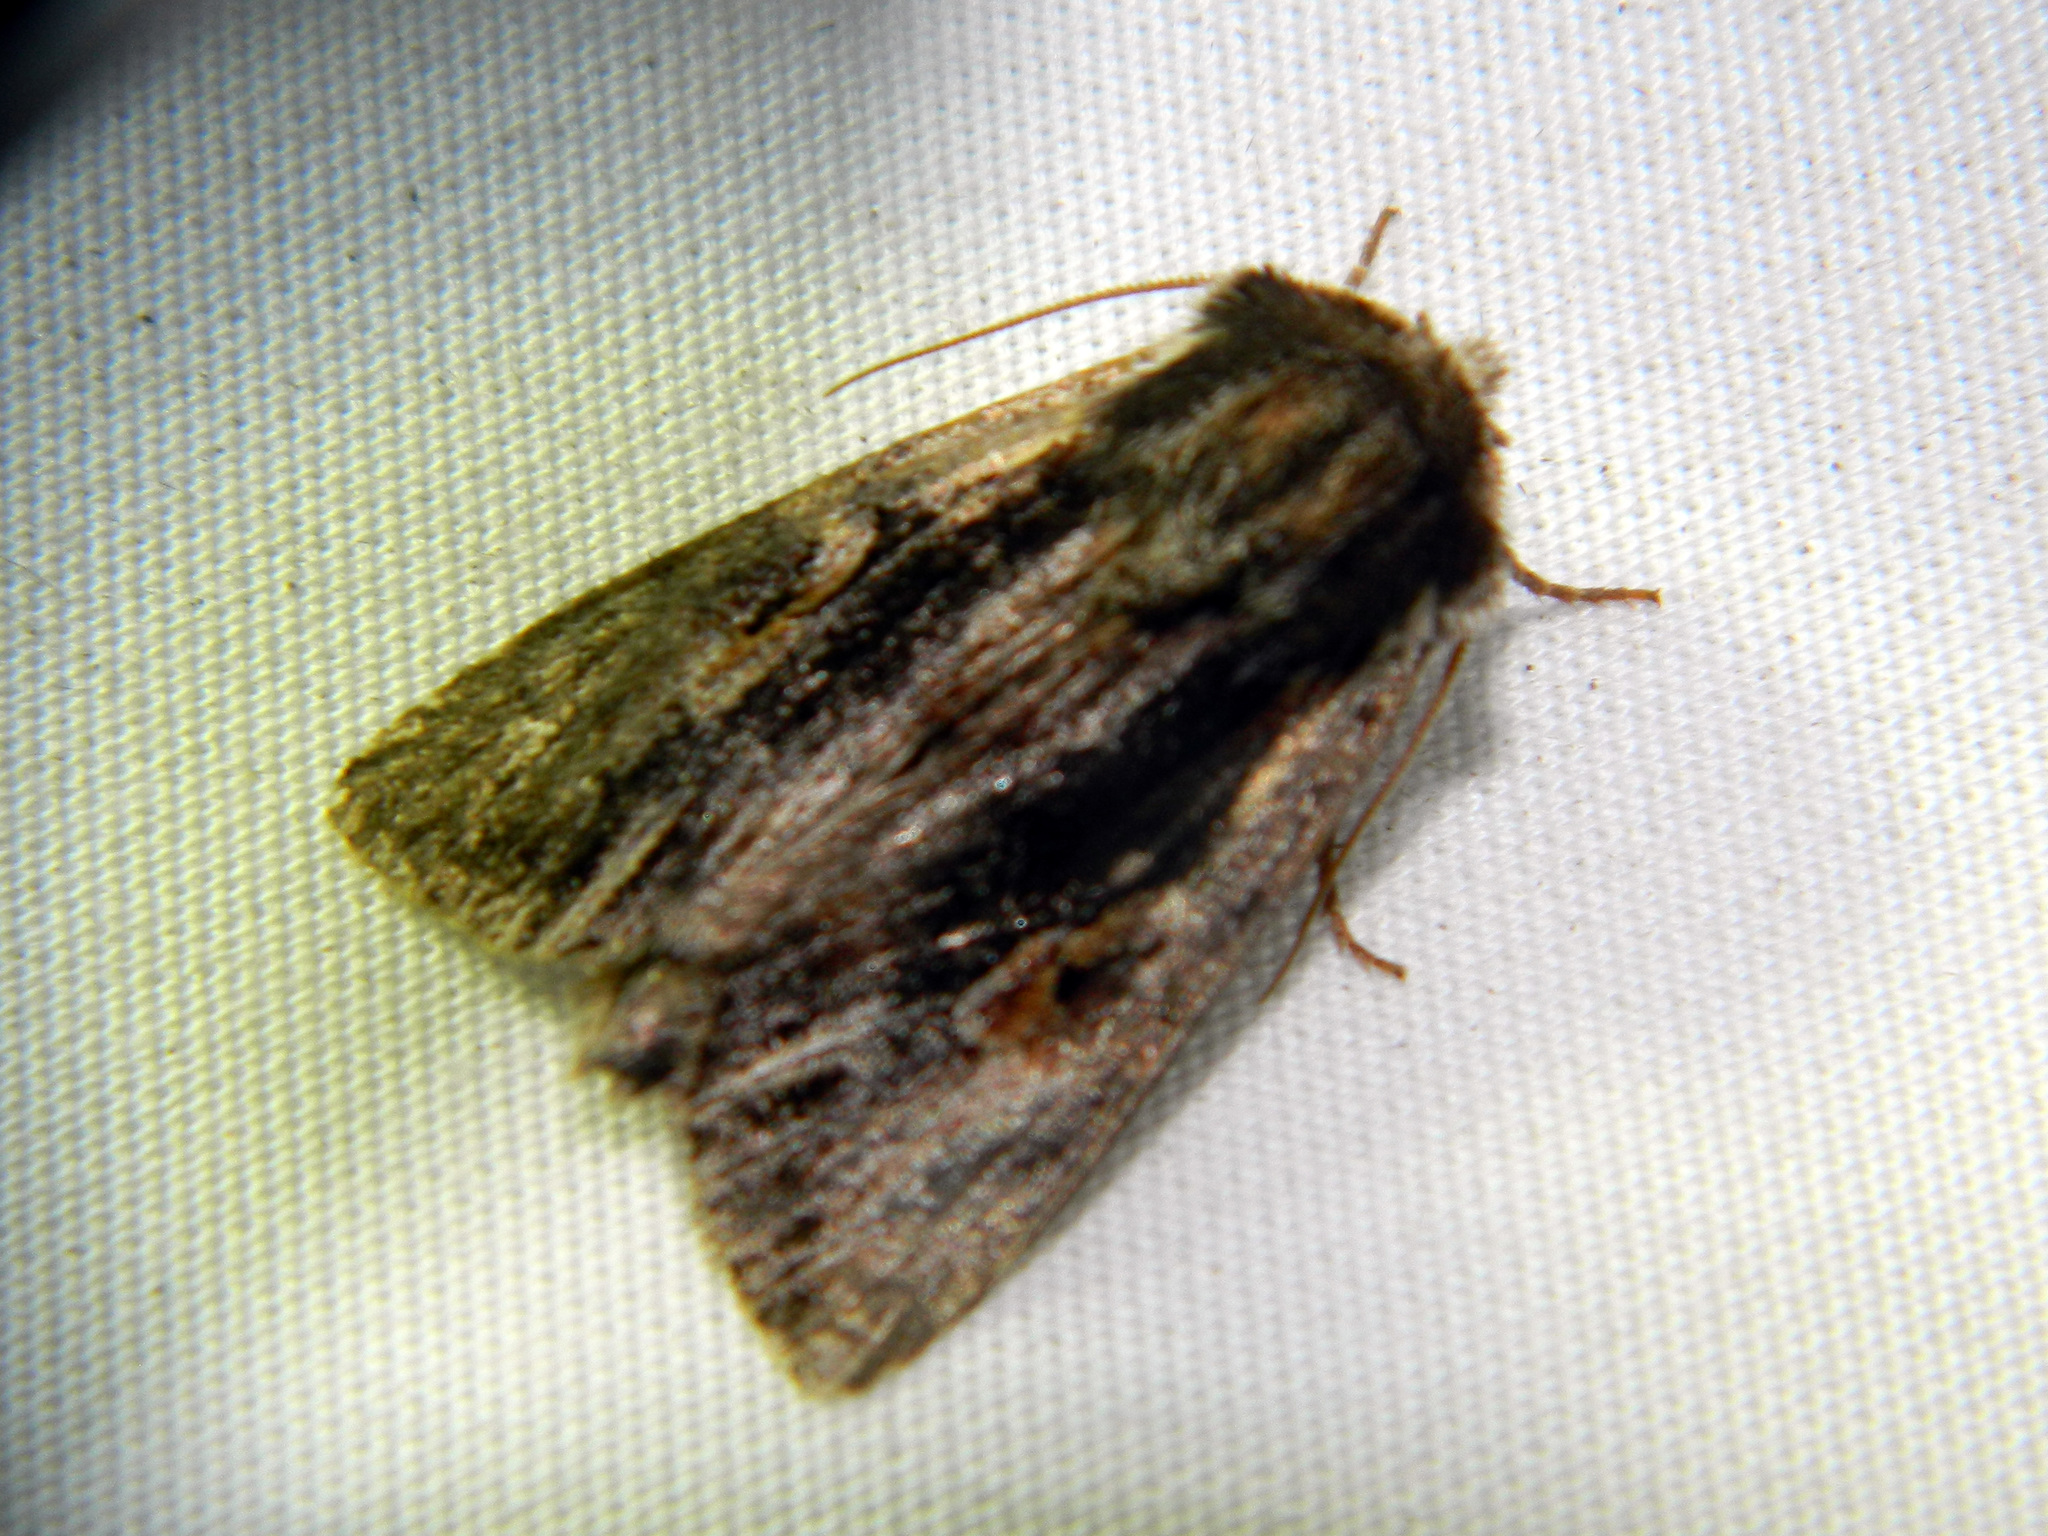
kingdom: Animalia
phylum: Arthropoda
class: Insecta
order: Lepidoptera
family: Noctuidae
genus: Achatia
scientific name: Achatia evicta
